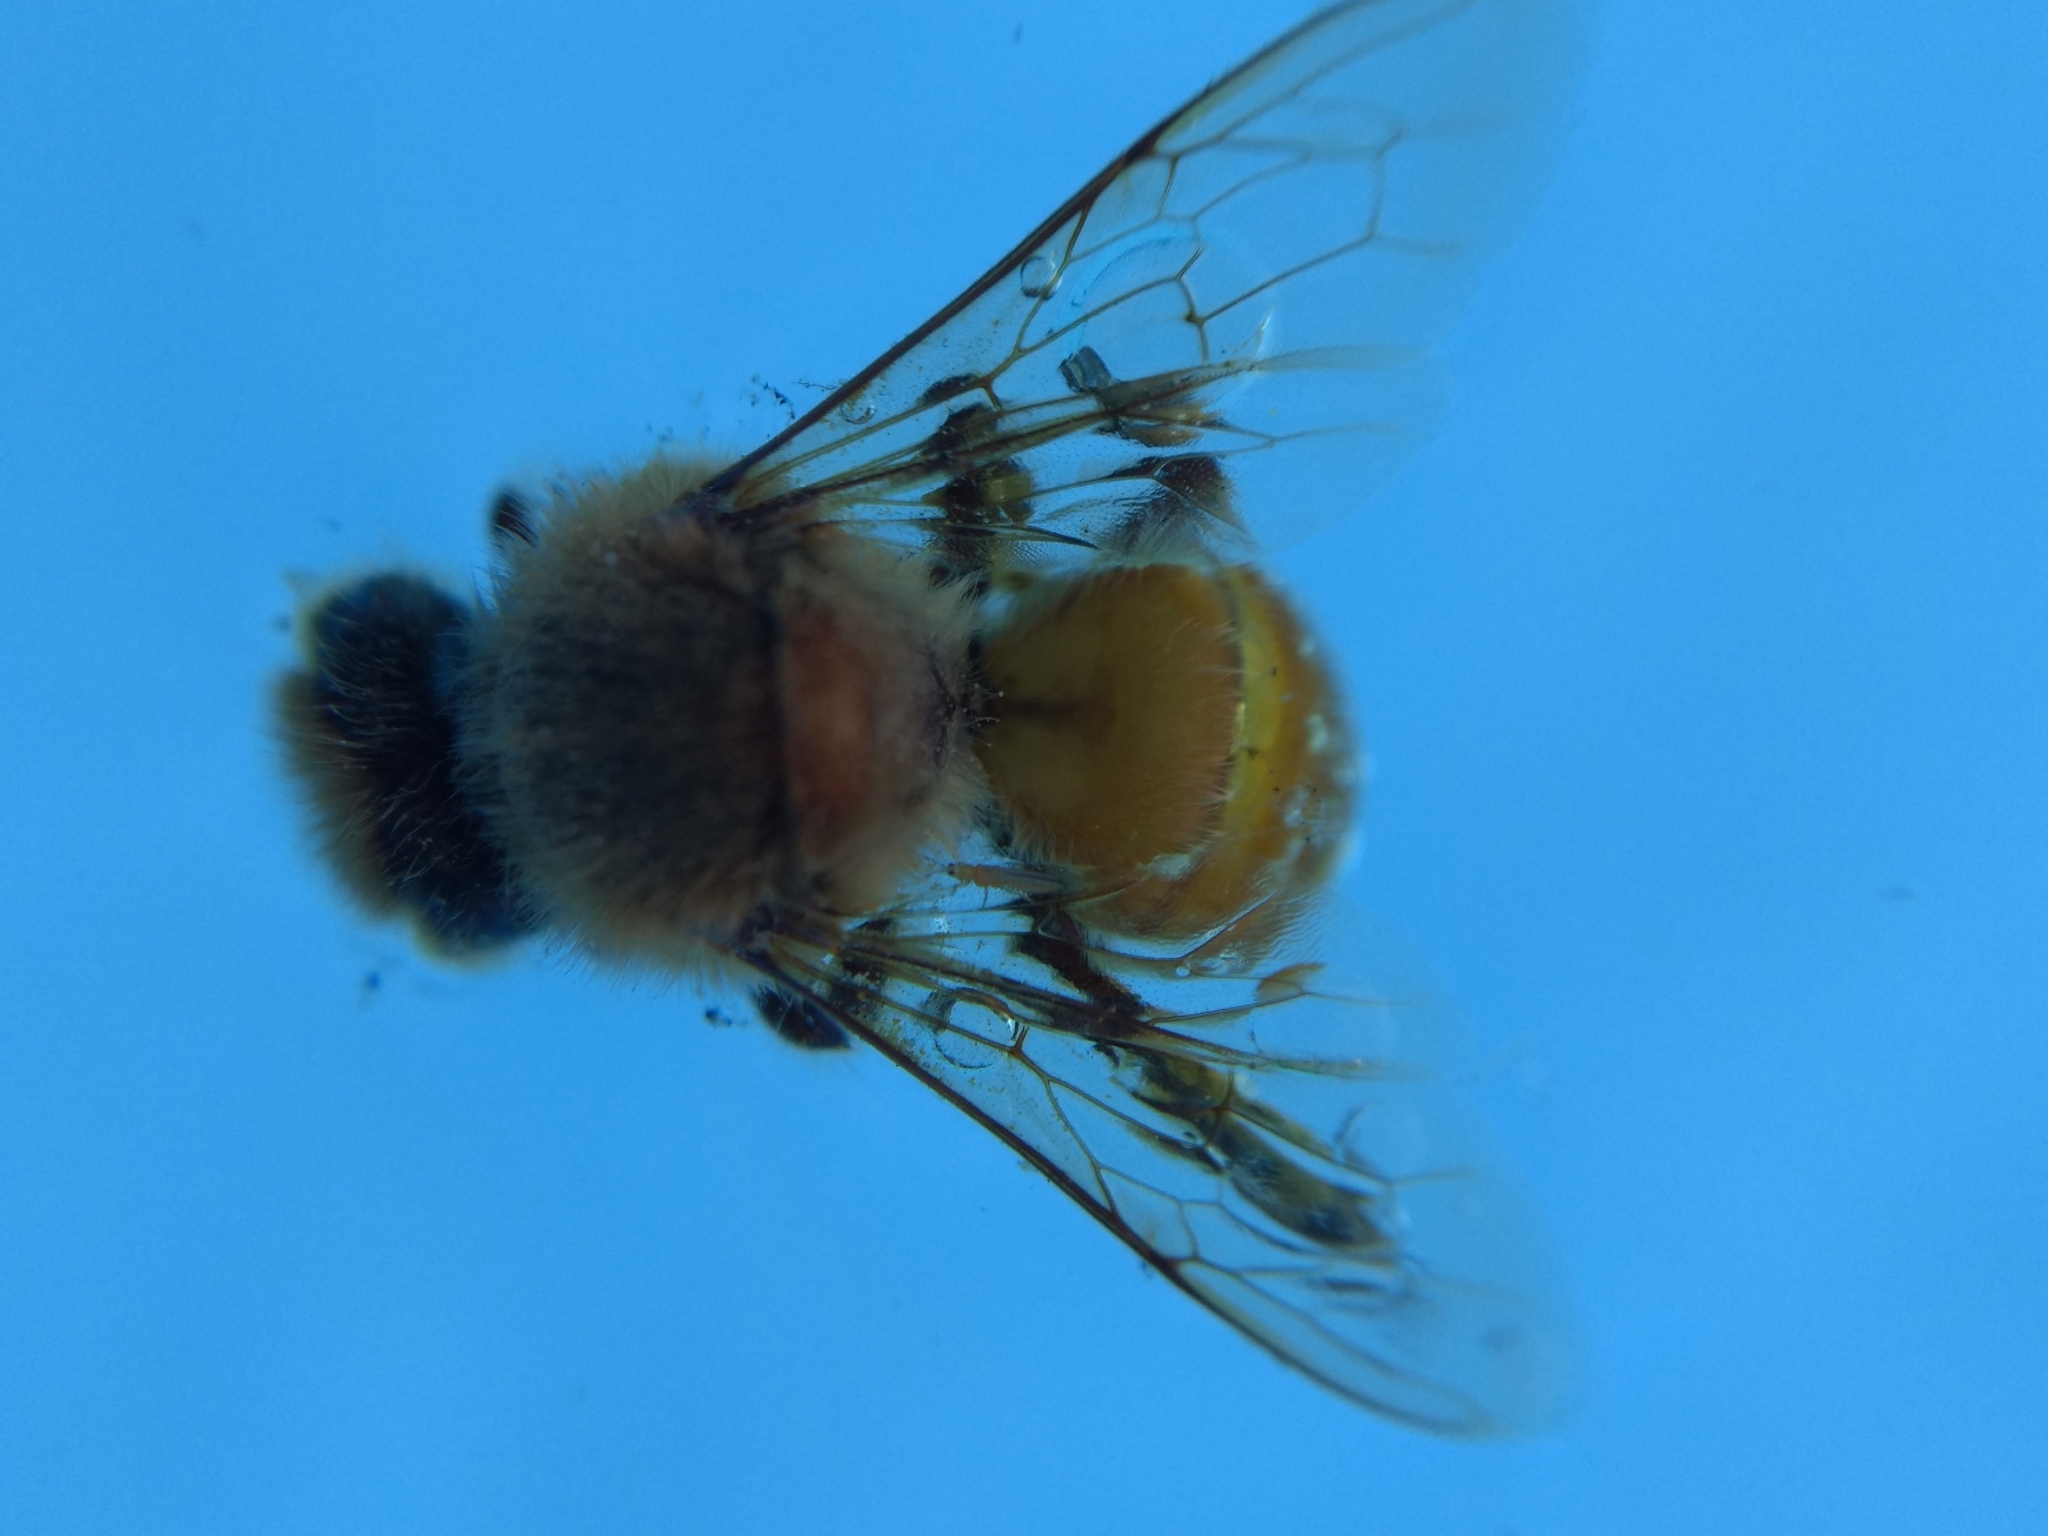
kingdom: Animalia
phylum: Arthropoda
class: Insecta
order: Hymenoptera
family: Apidae
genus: Apis
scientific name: Apis mellifera
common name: Honey bee
